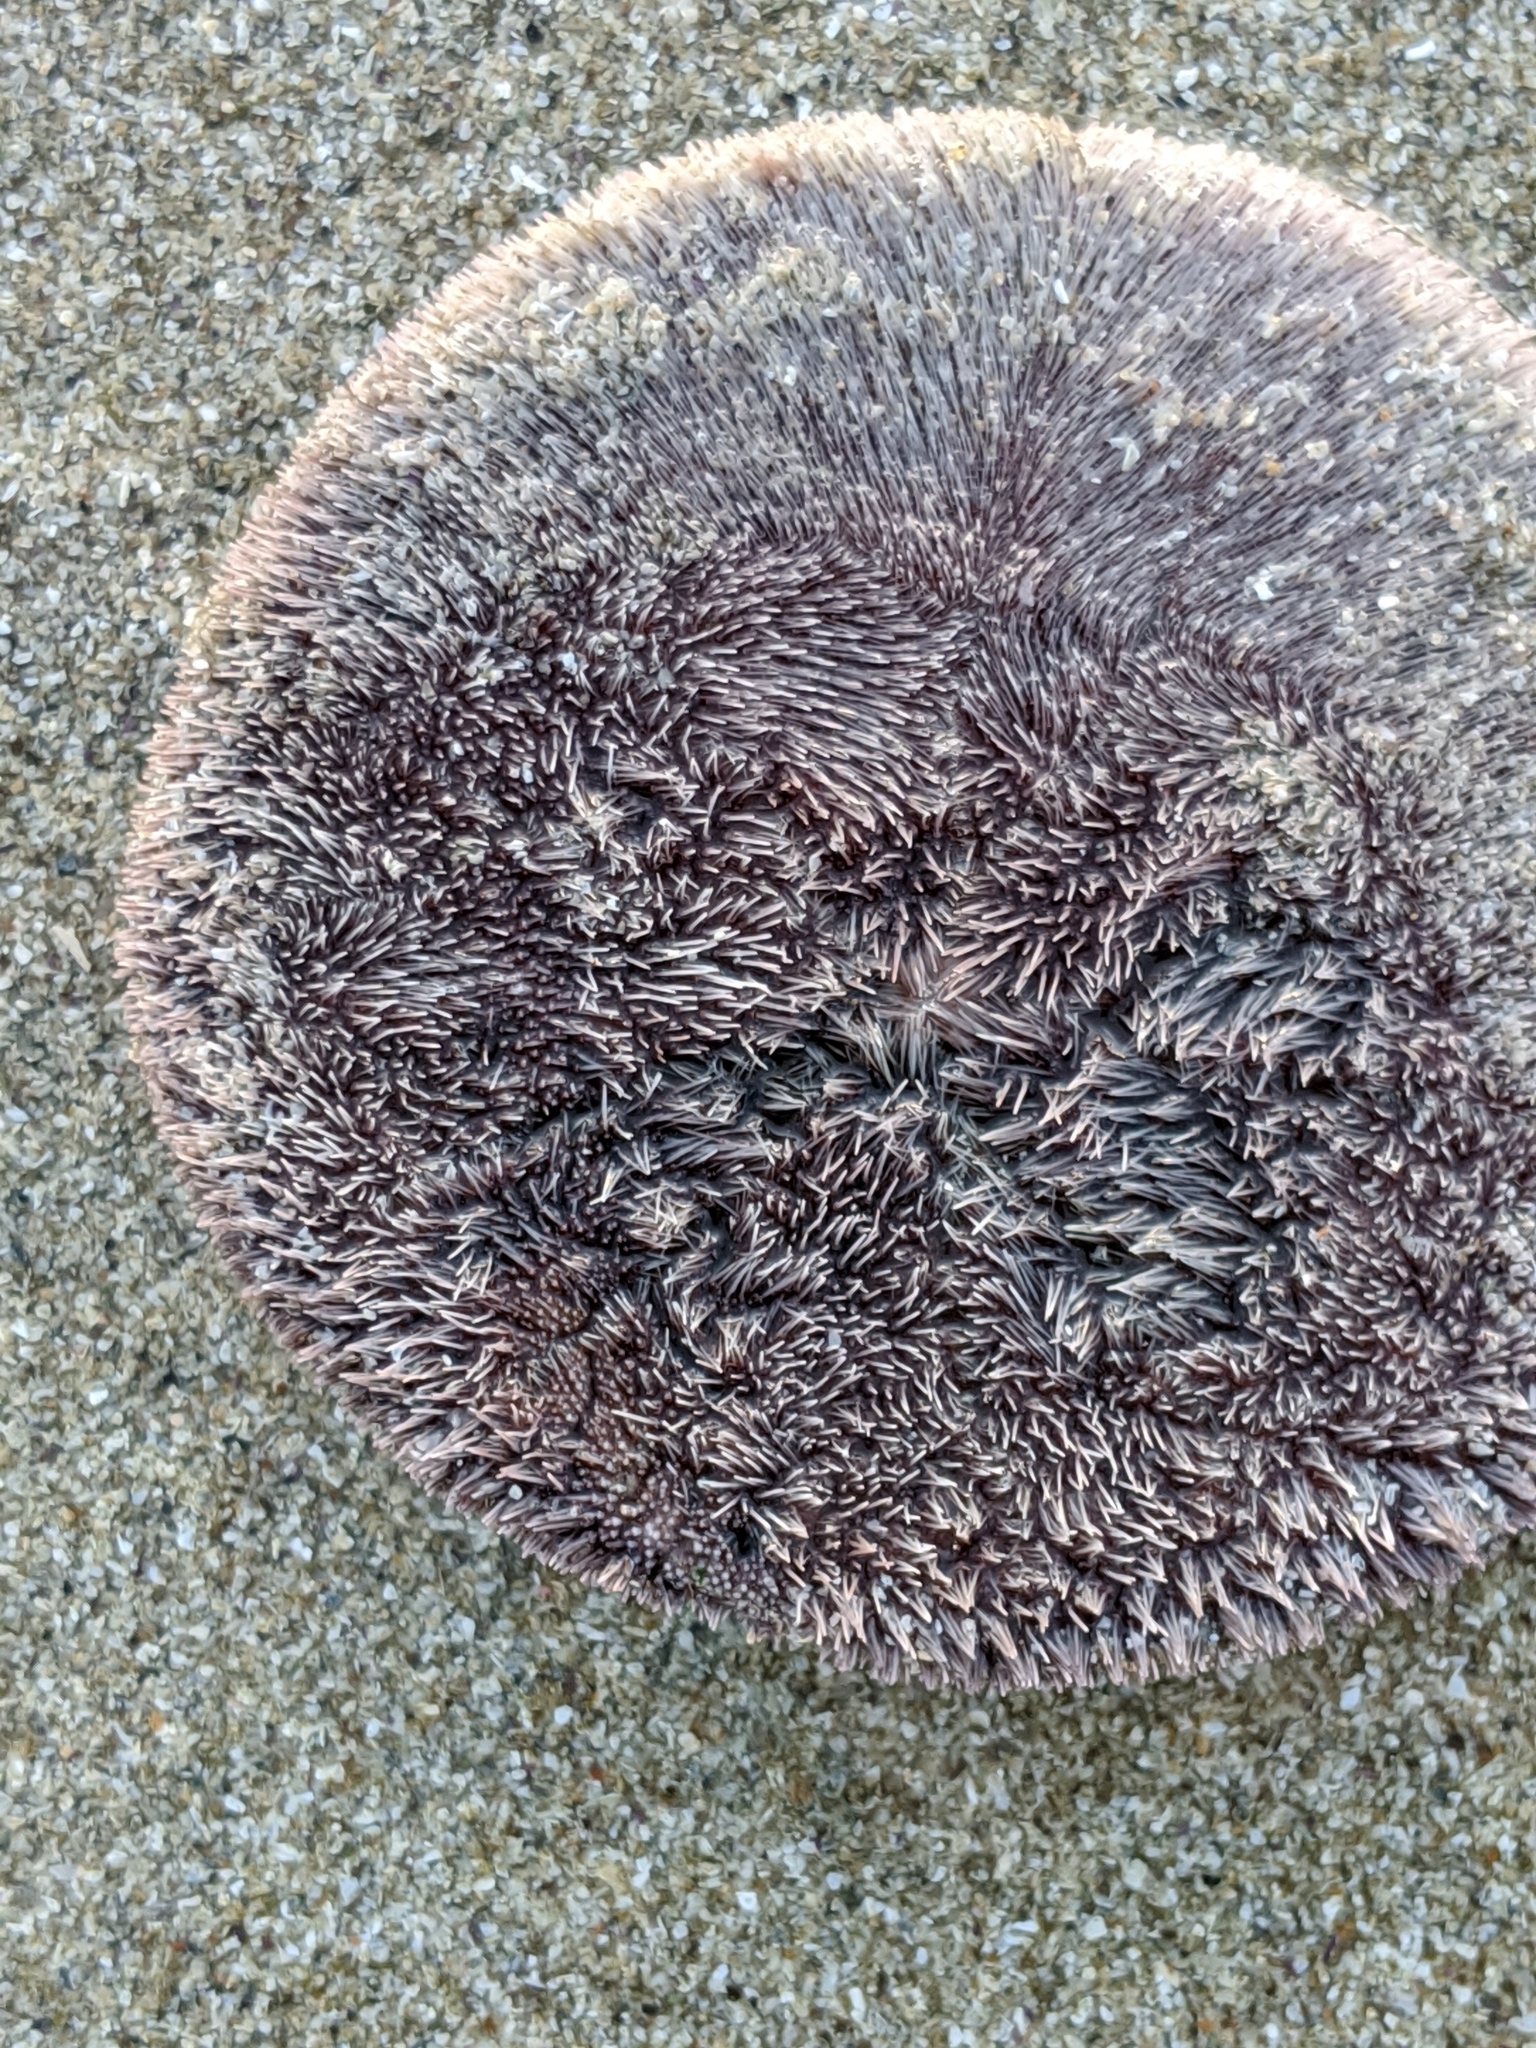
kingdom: Animalia
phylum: Echinodermata
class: Echinoidea
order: Echinolampadacea
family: Dendrasteridae
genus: Dendraster
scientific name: Dendraster excentricus
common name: Eccentric sand dollar sea urchin
